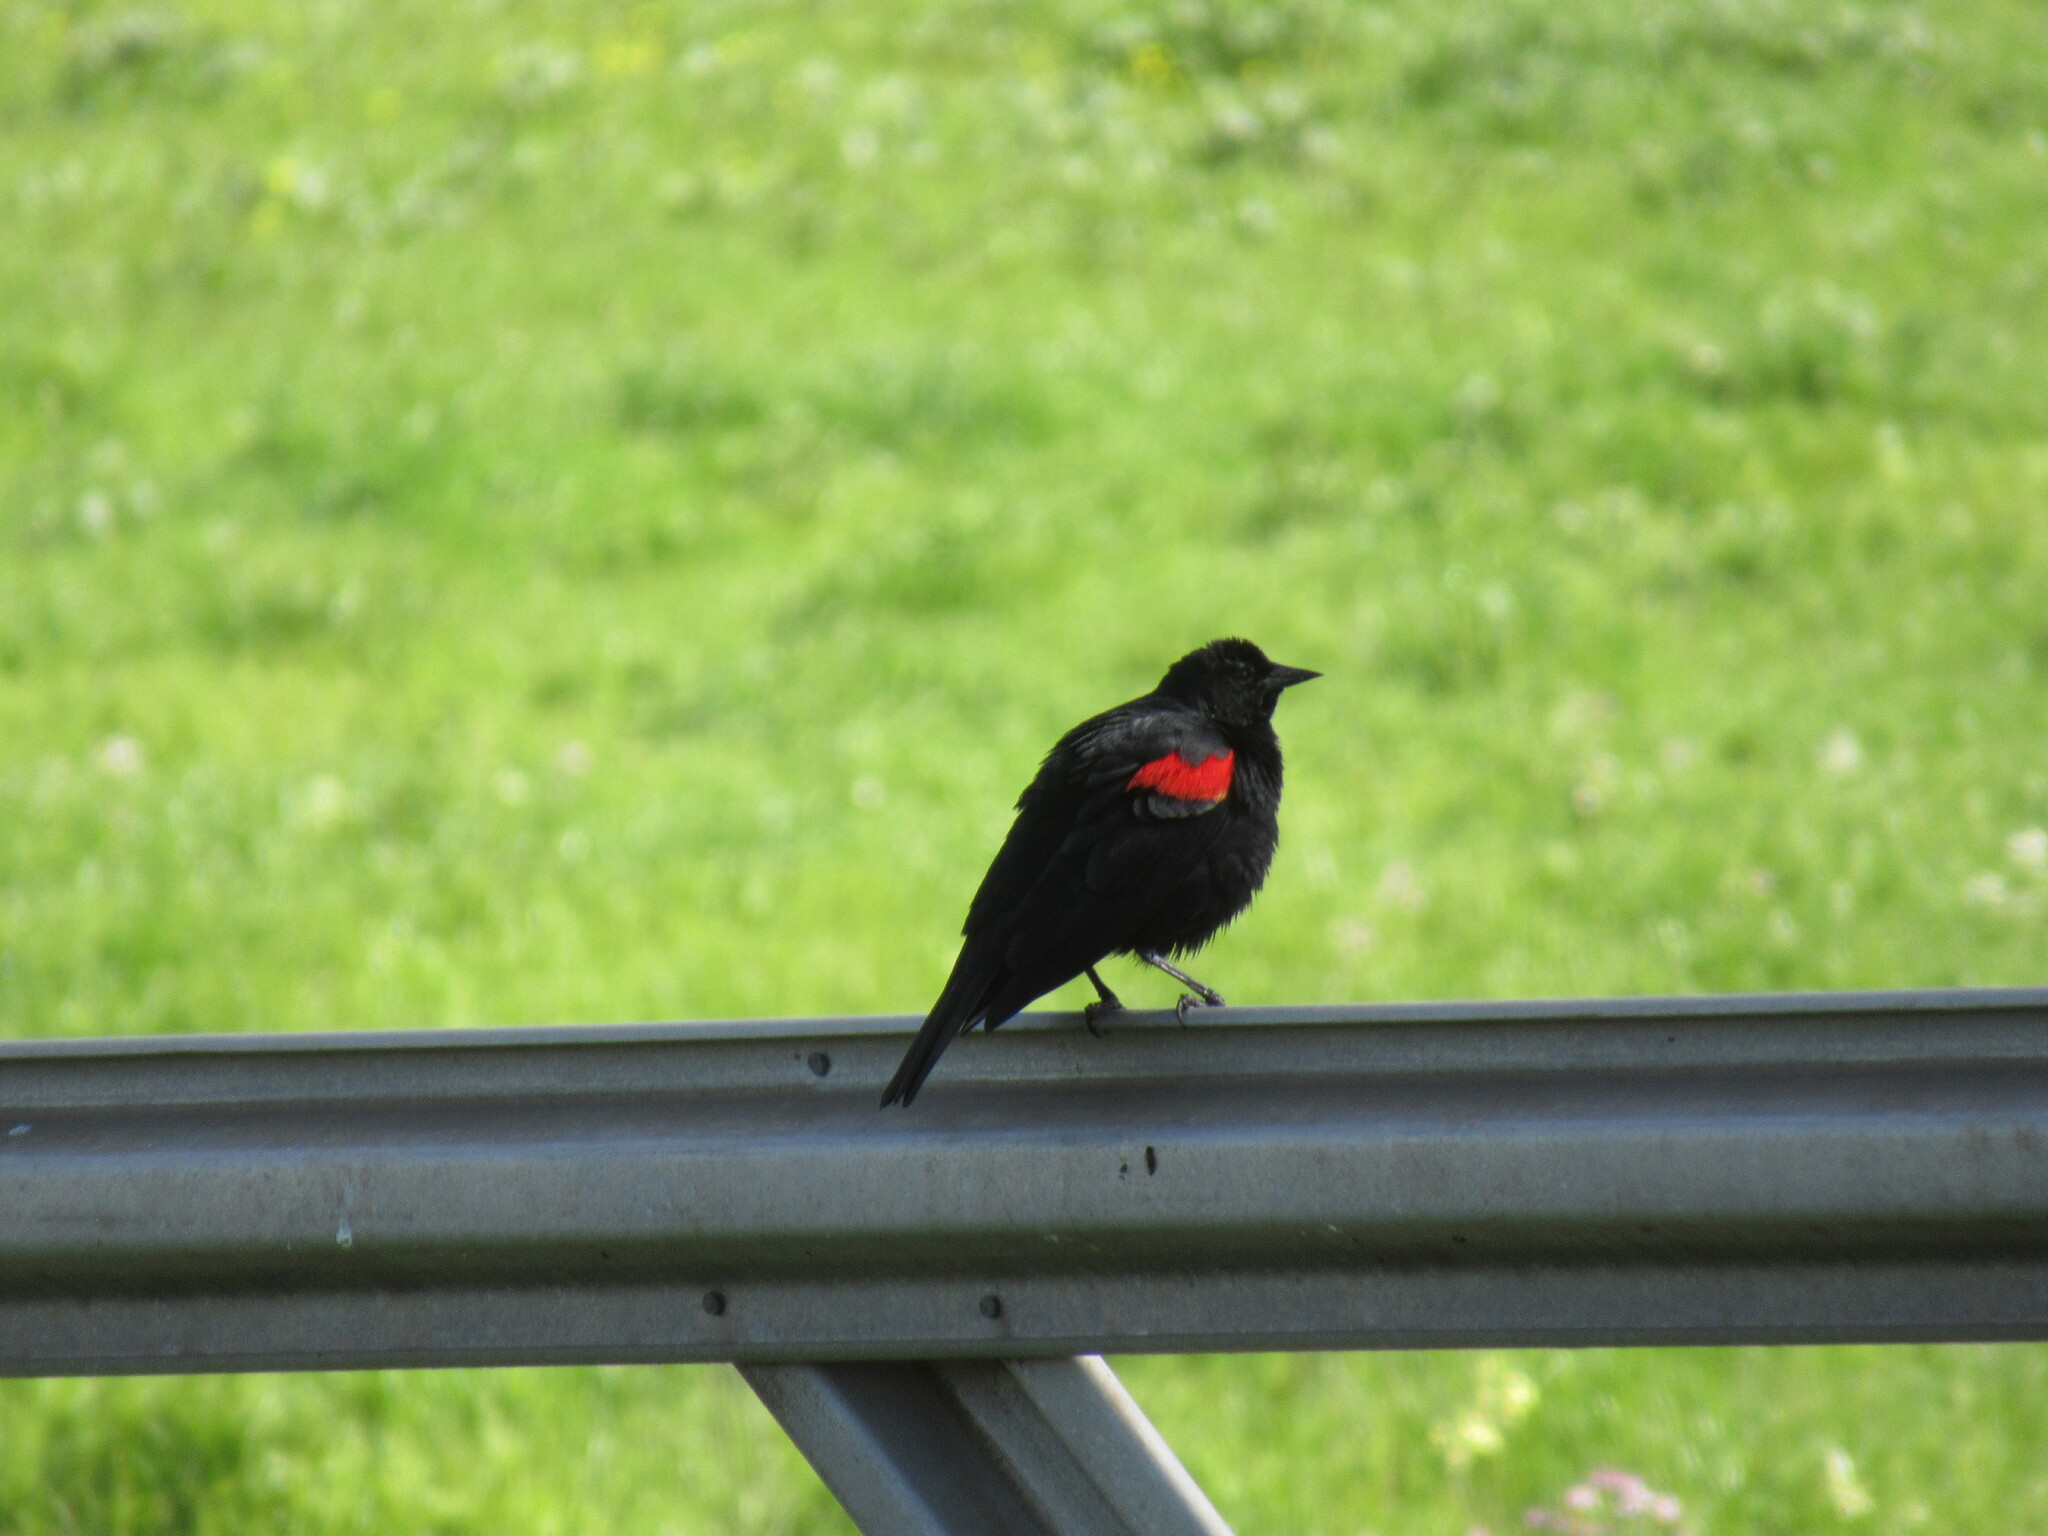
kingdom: Animalia
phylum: Chordata
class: Aves
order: Passeriformes
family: Icteridae
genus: Agelaius
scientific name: Agelaius phoeniceus
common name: Red-winged blackbird
